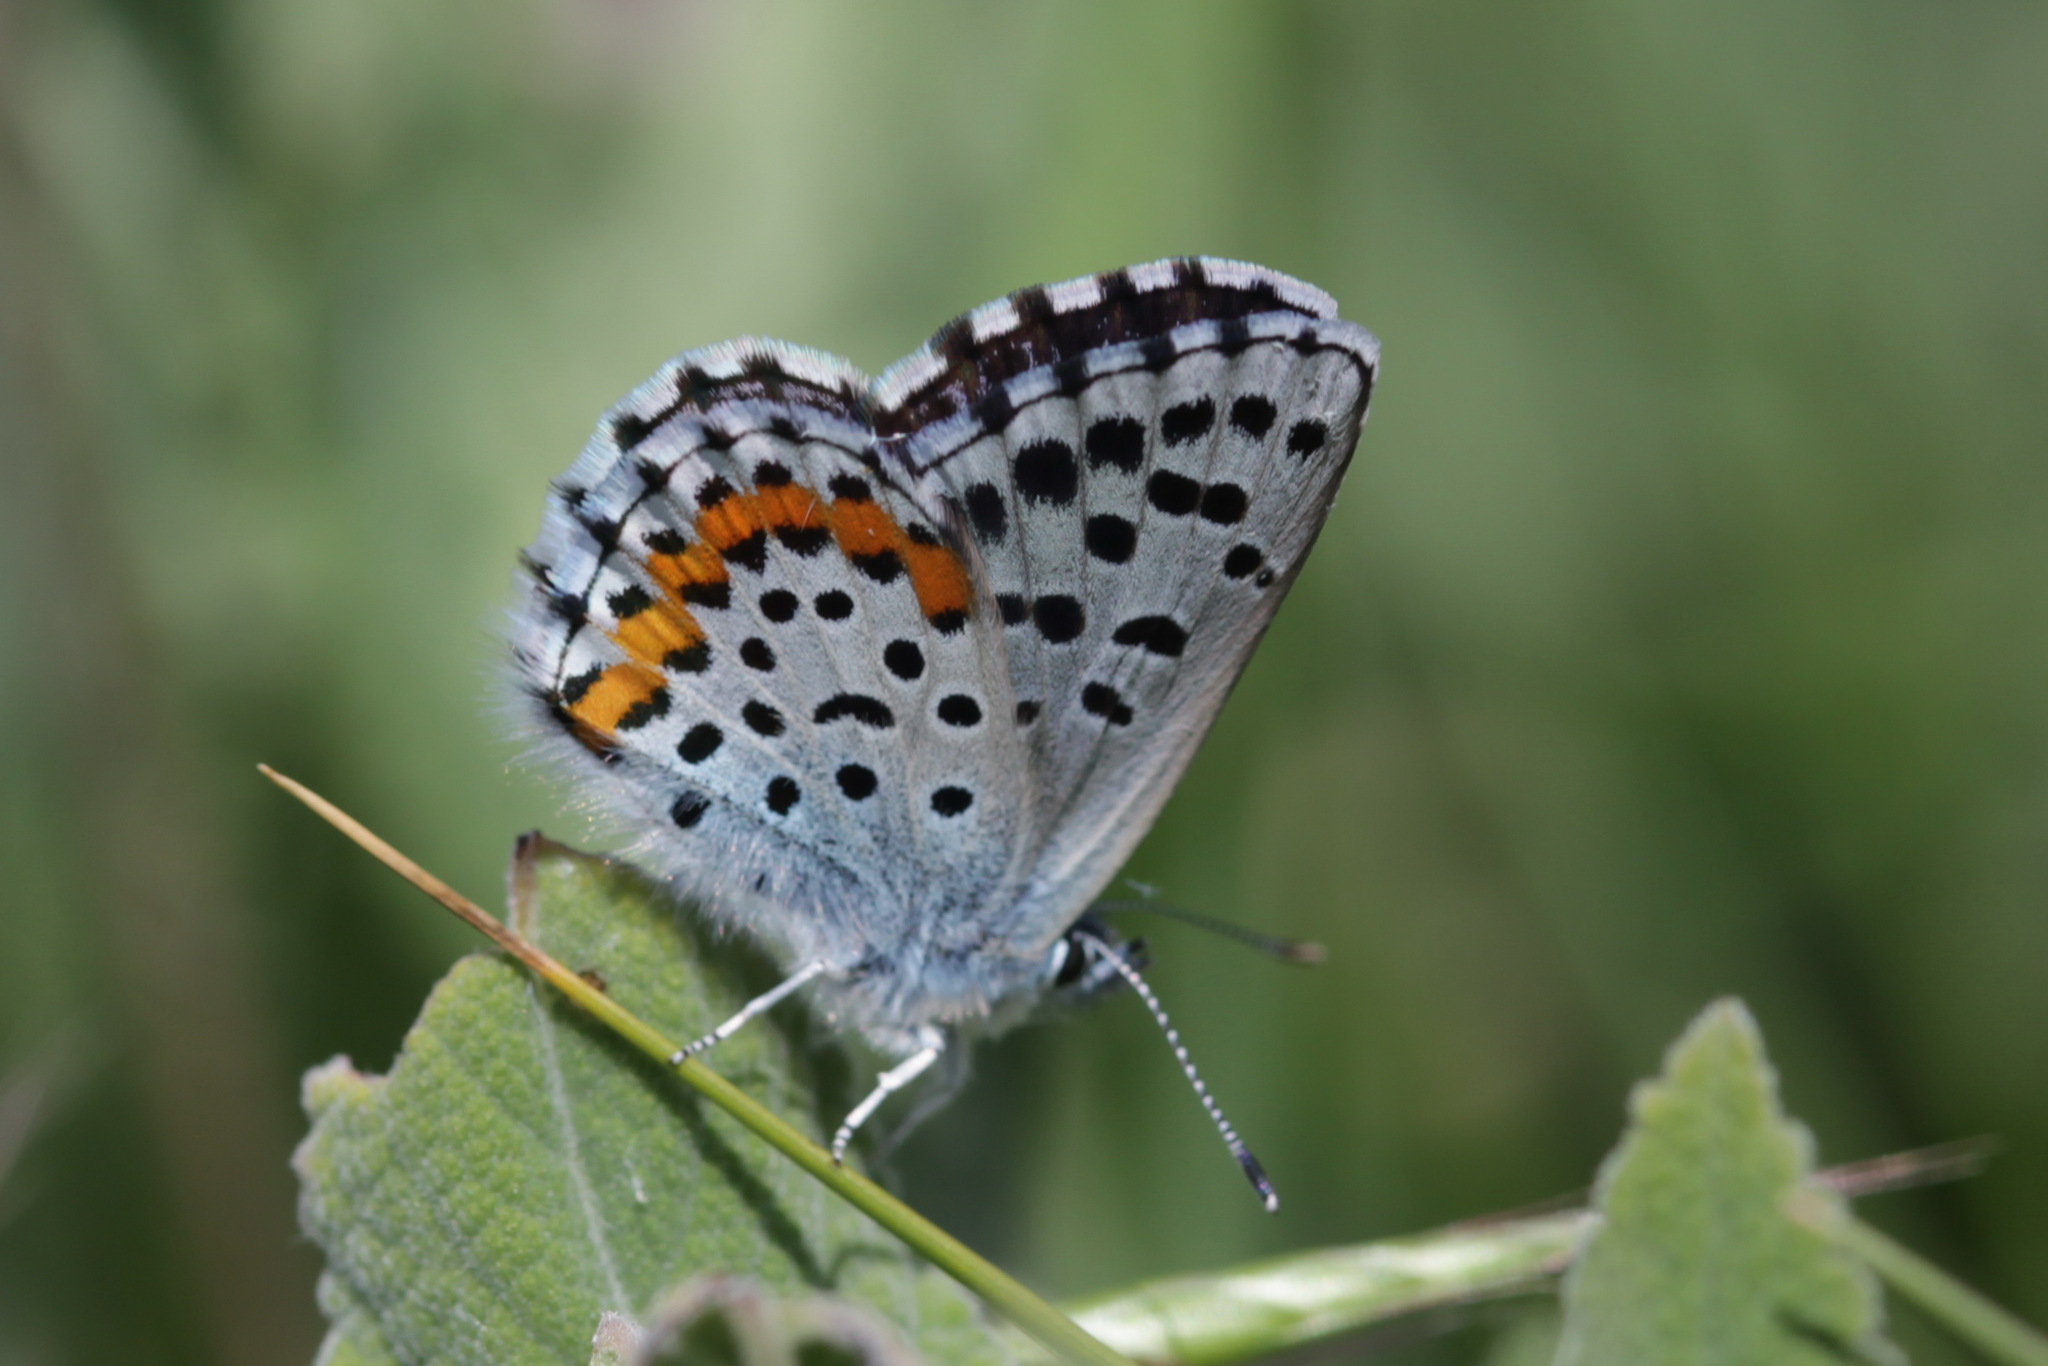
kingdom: Animalia
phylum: Arthropoda
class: Insecta
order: Lepidoptera
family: Lycaenidae
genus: Pseudophilotes
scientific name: Pseudophilotes bavius
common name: Bavius blue
